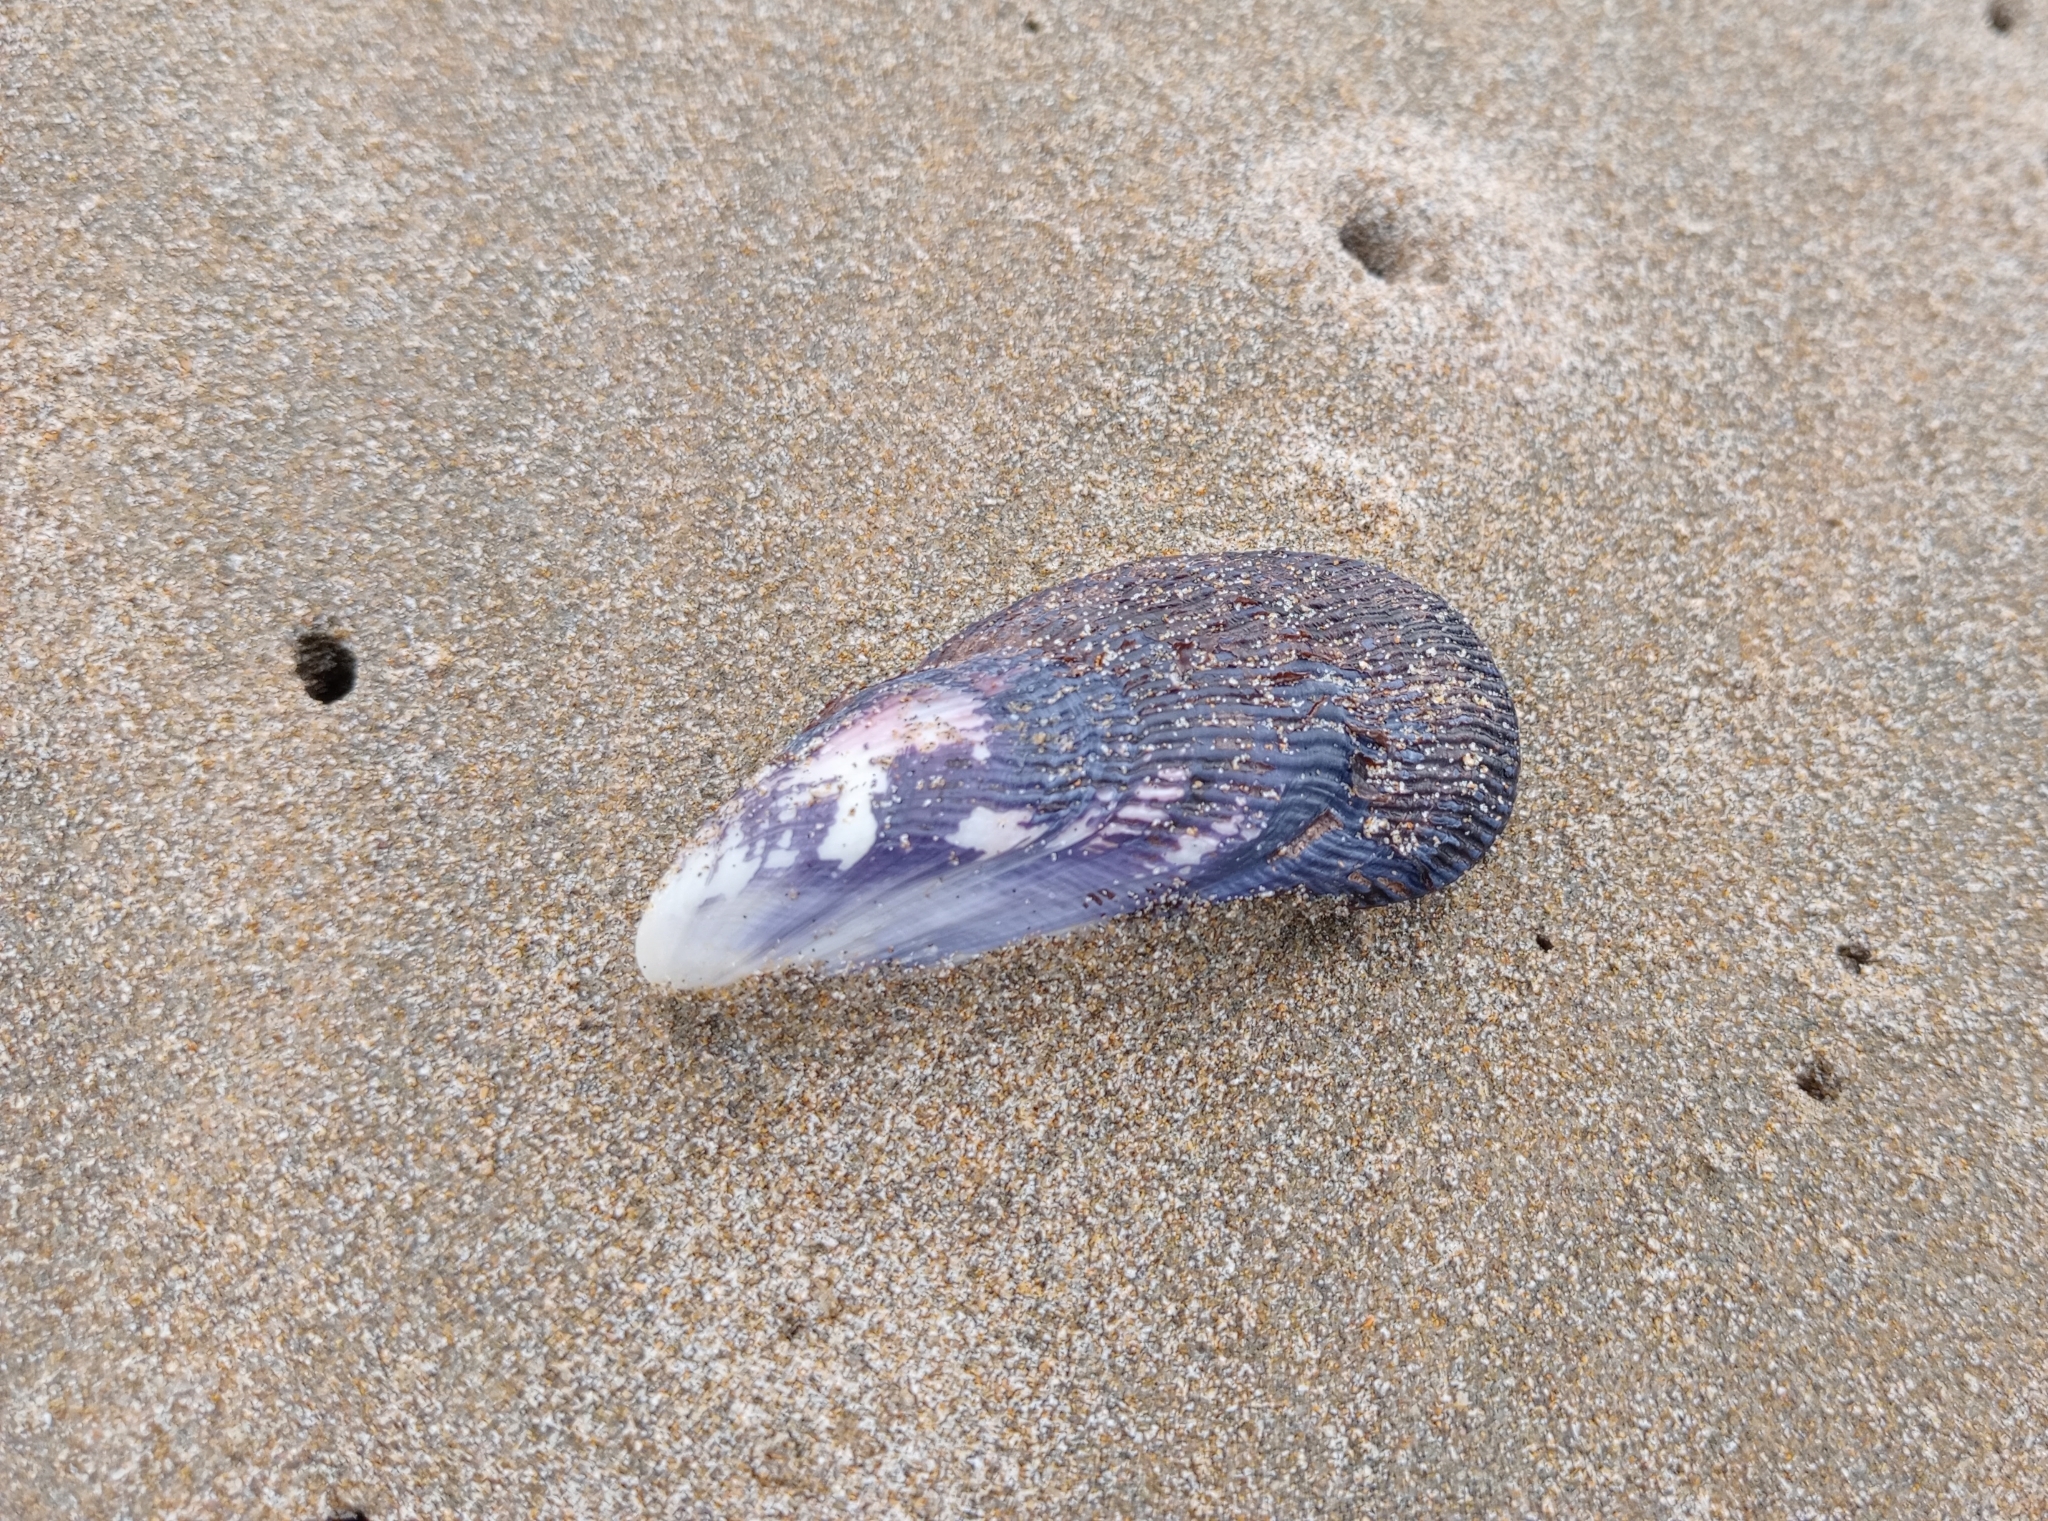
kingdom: Animalia
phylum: Mollusca
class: Bivalvia
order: Mytilida
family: Mytilidae
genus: Aulacomya
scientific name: Aulacomya maoriana
